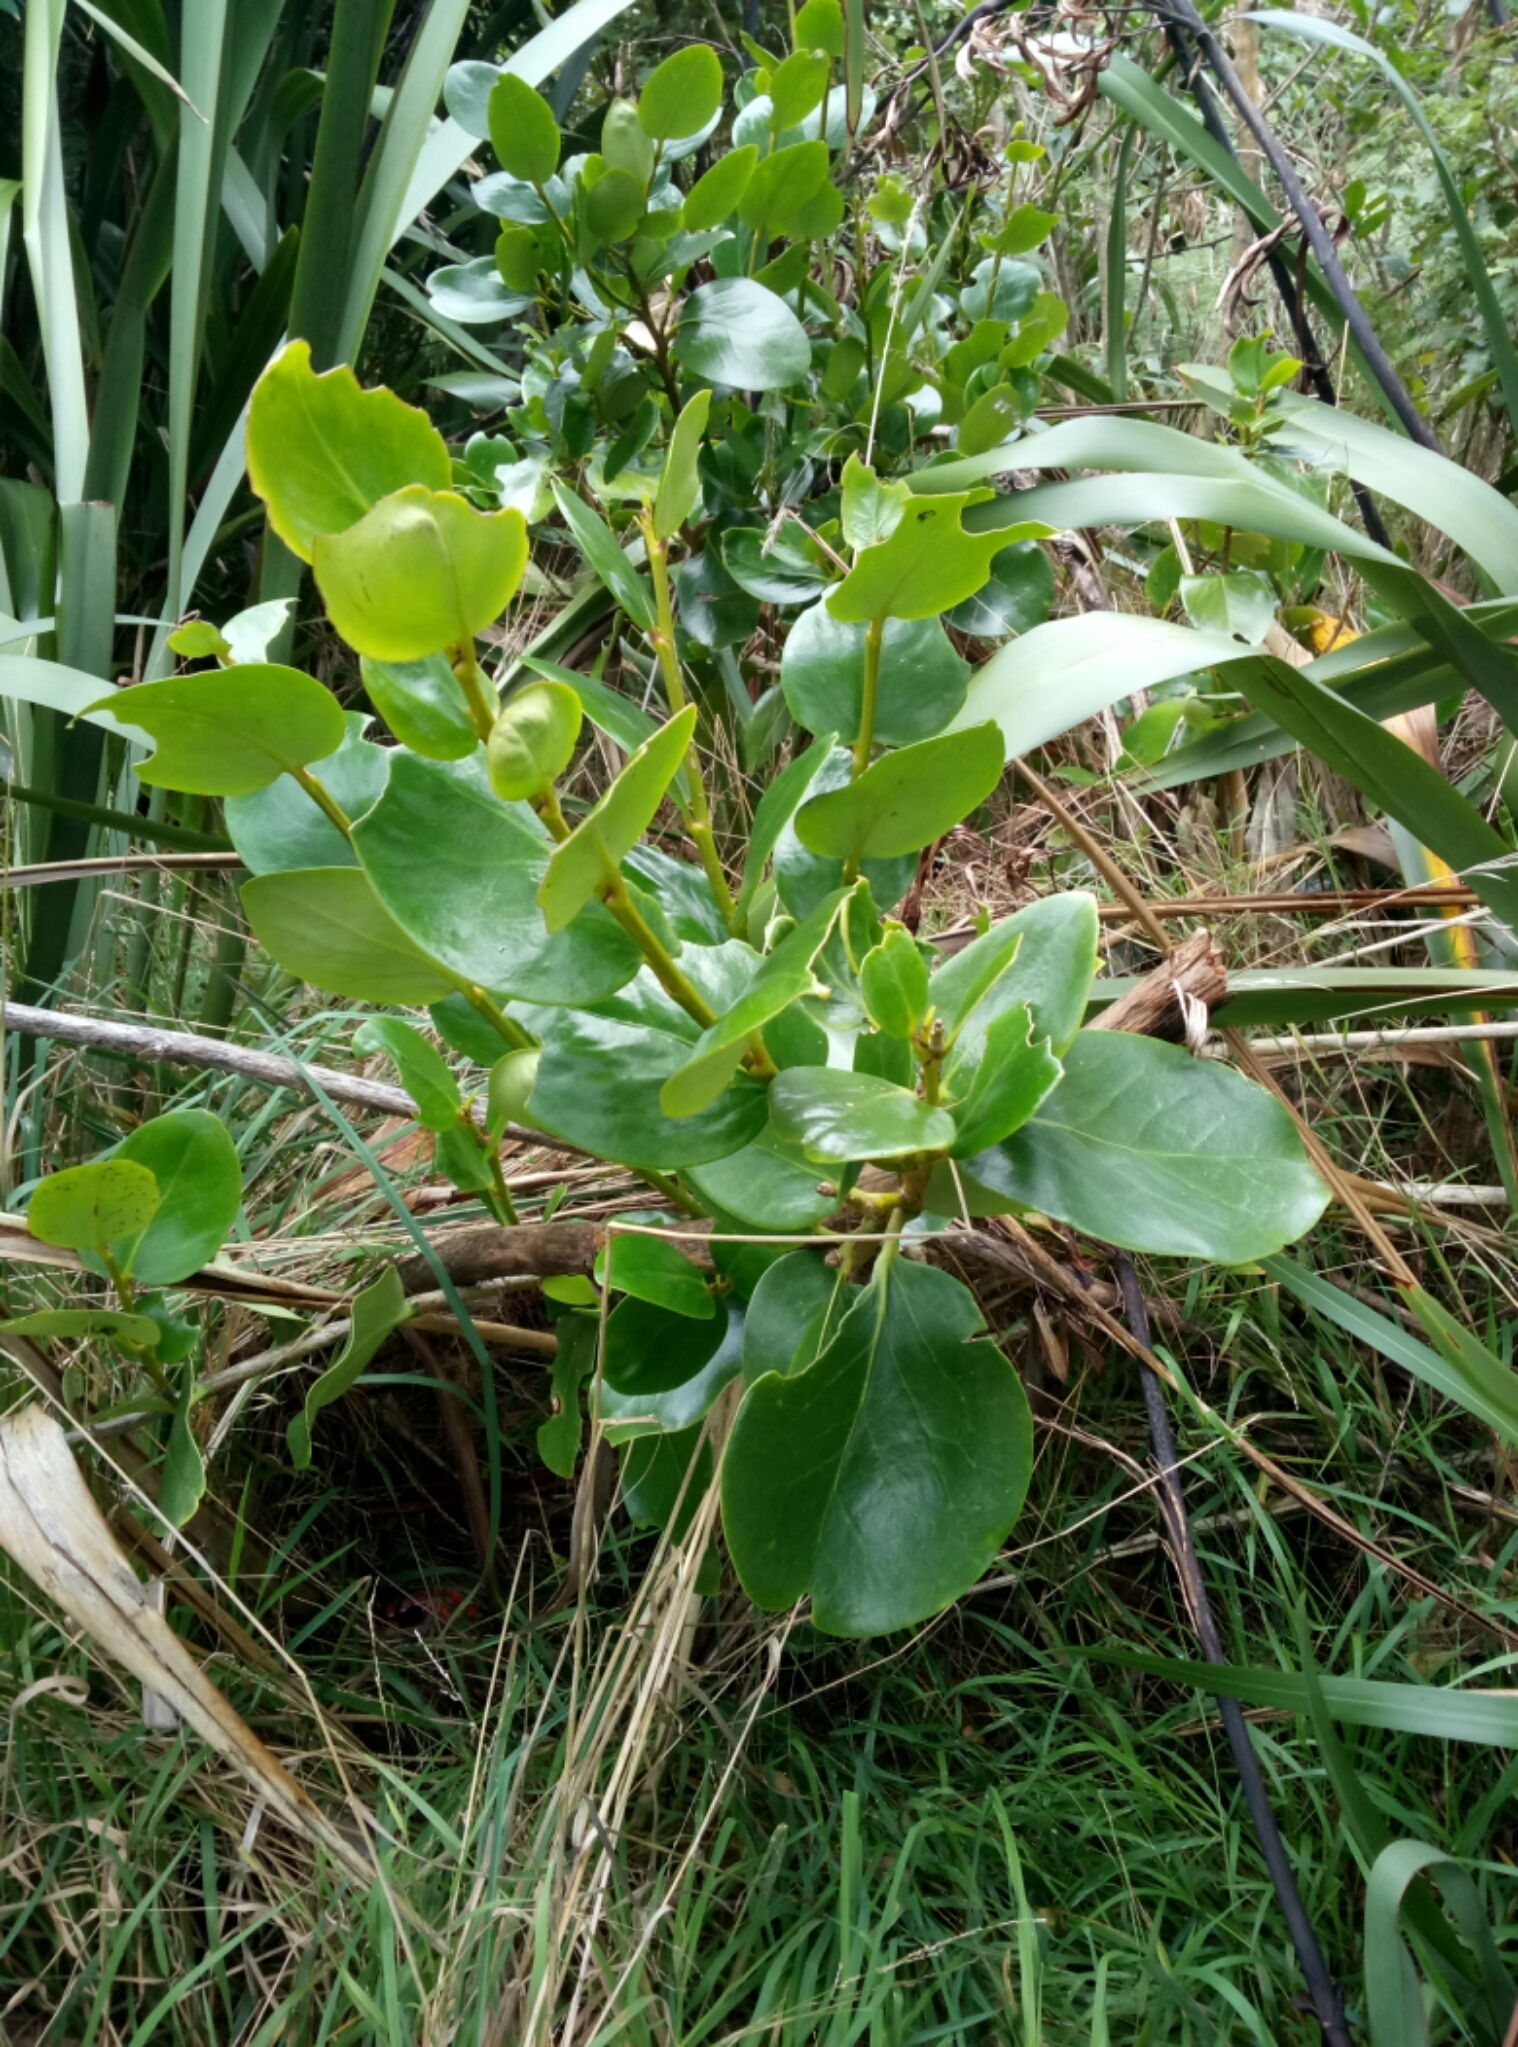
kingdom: Plantae
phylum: Tracheophyta
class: Magnoliopsida
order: Apiales
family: Griseliniaceae
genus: Griselinia
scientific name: Griselinia littoralis
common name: New zealand broadleaf
